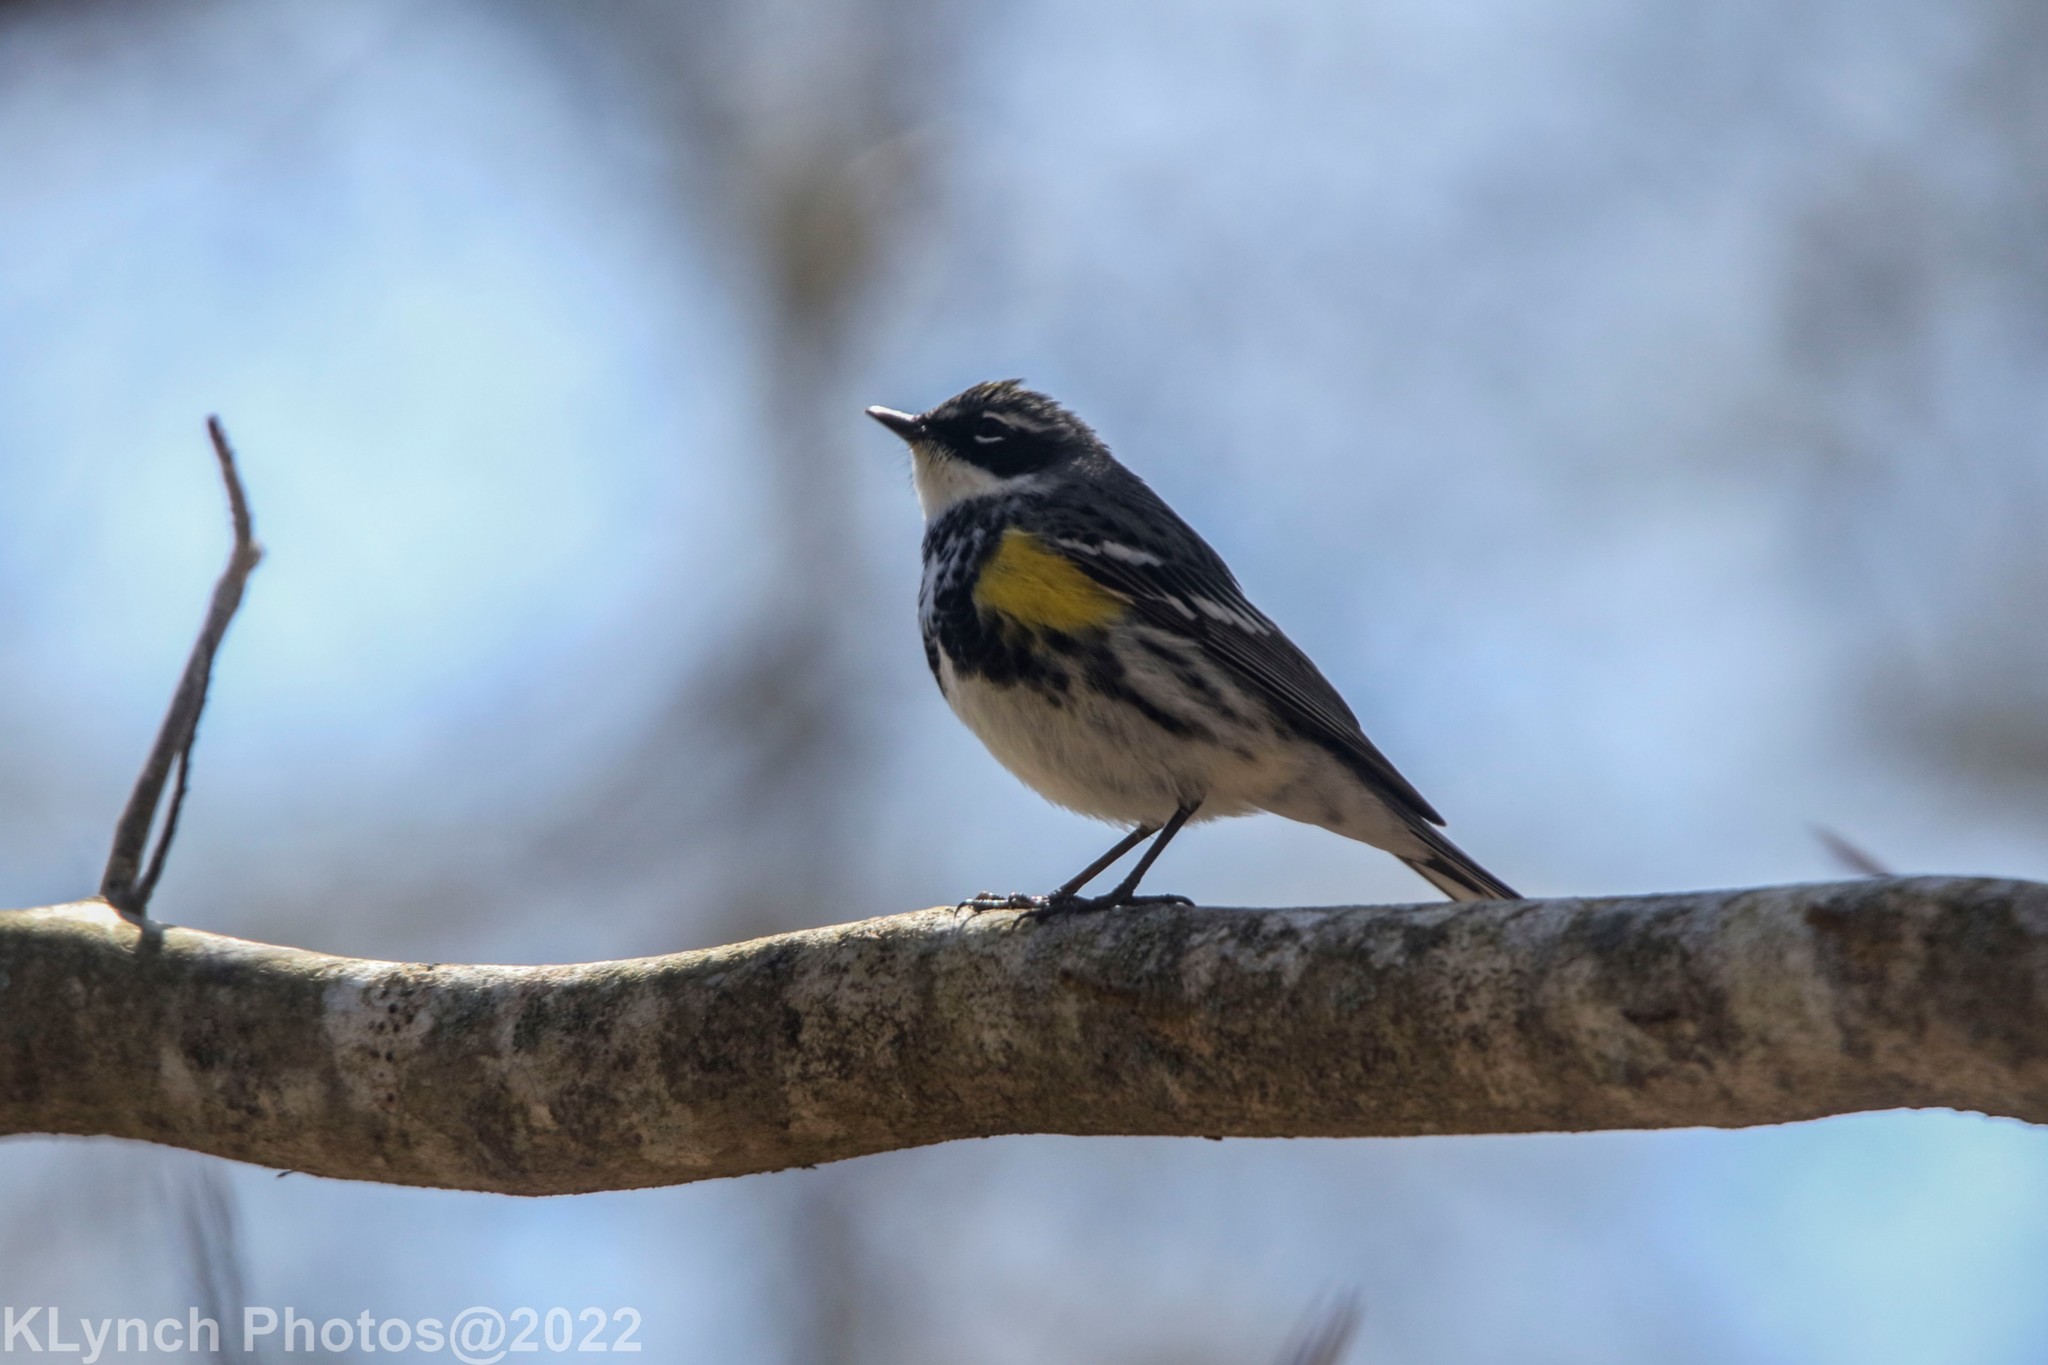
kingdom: Animalia
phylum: Chordata
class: Aves
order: Passeriformes
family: Parulidae
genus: Setophaga
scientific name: Setophaga coronata
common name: Myrtle warbler
